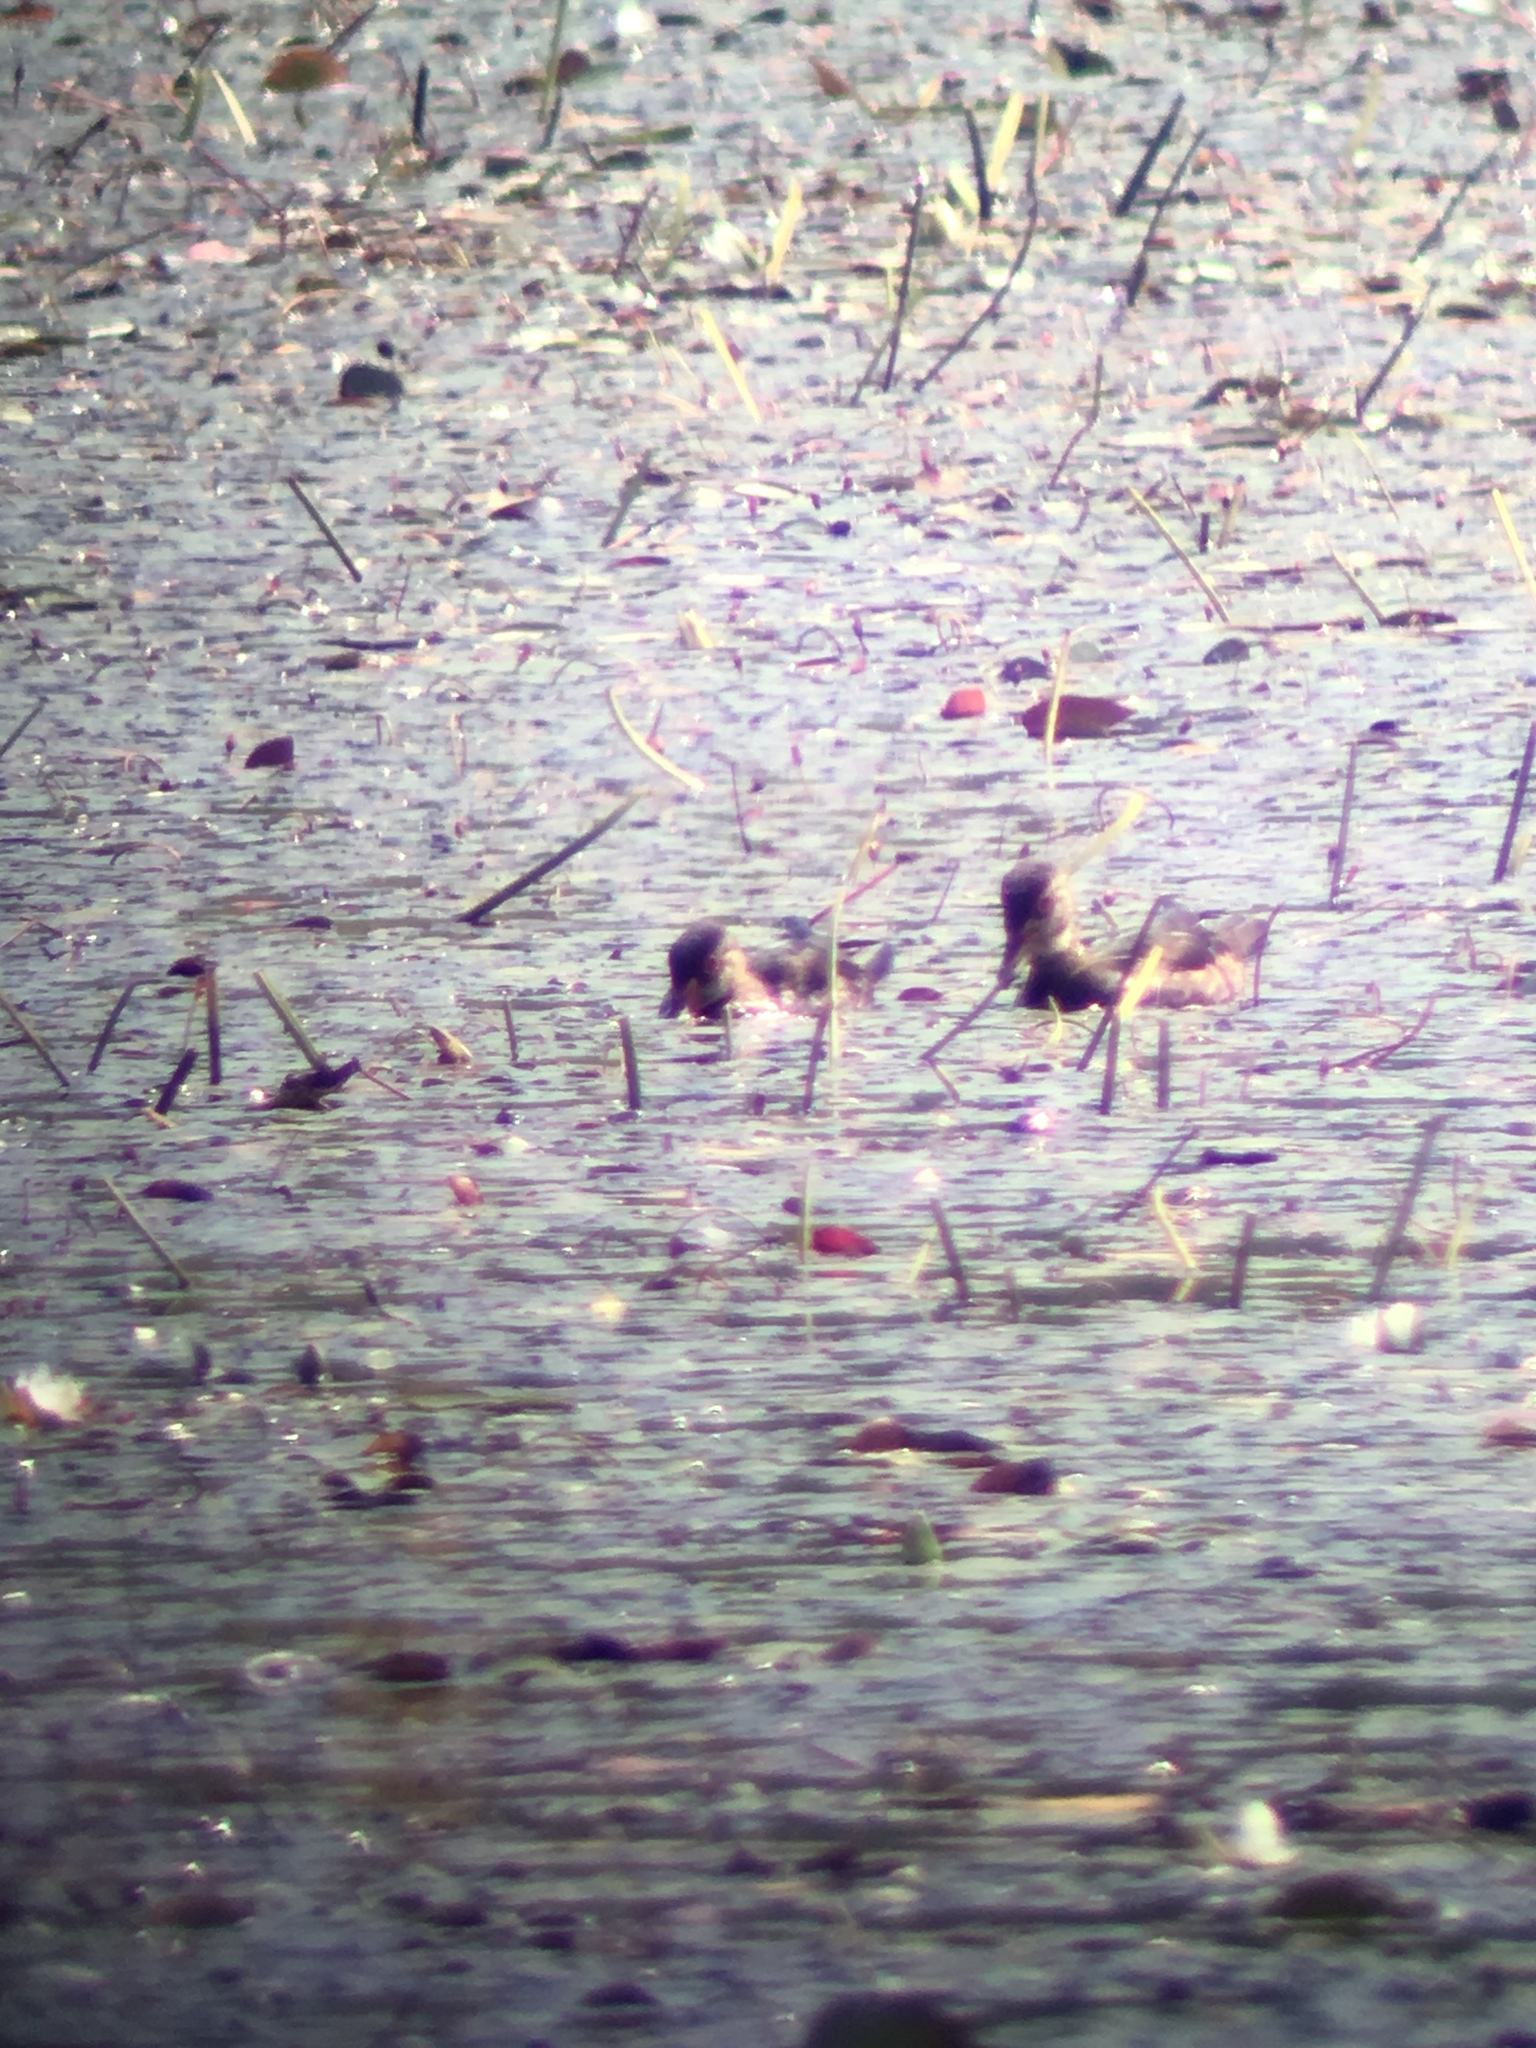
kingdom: Animalia
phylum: Chordata
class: Aves
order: Anseriformes
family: Anatidae
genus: Aix
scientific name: Aix sponsa
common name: Wood duck
